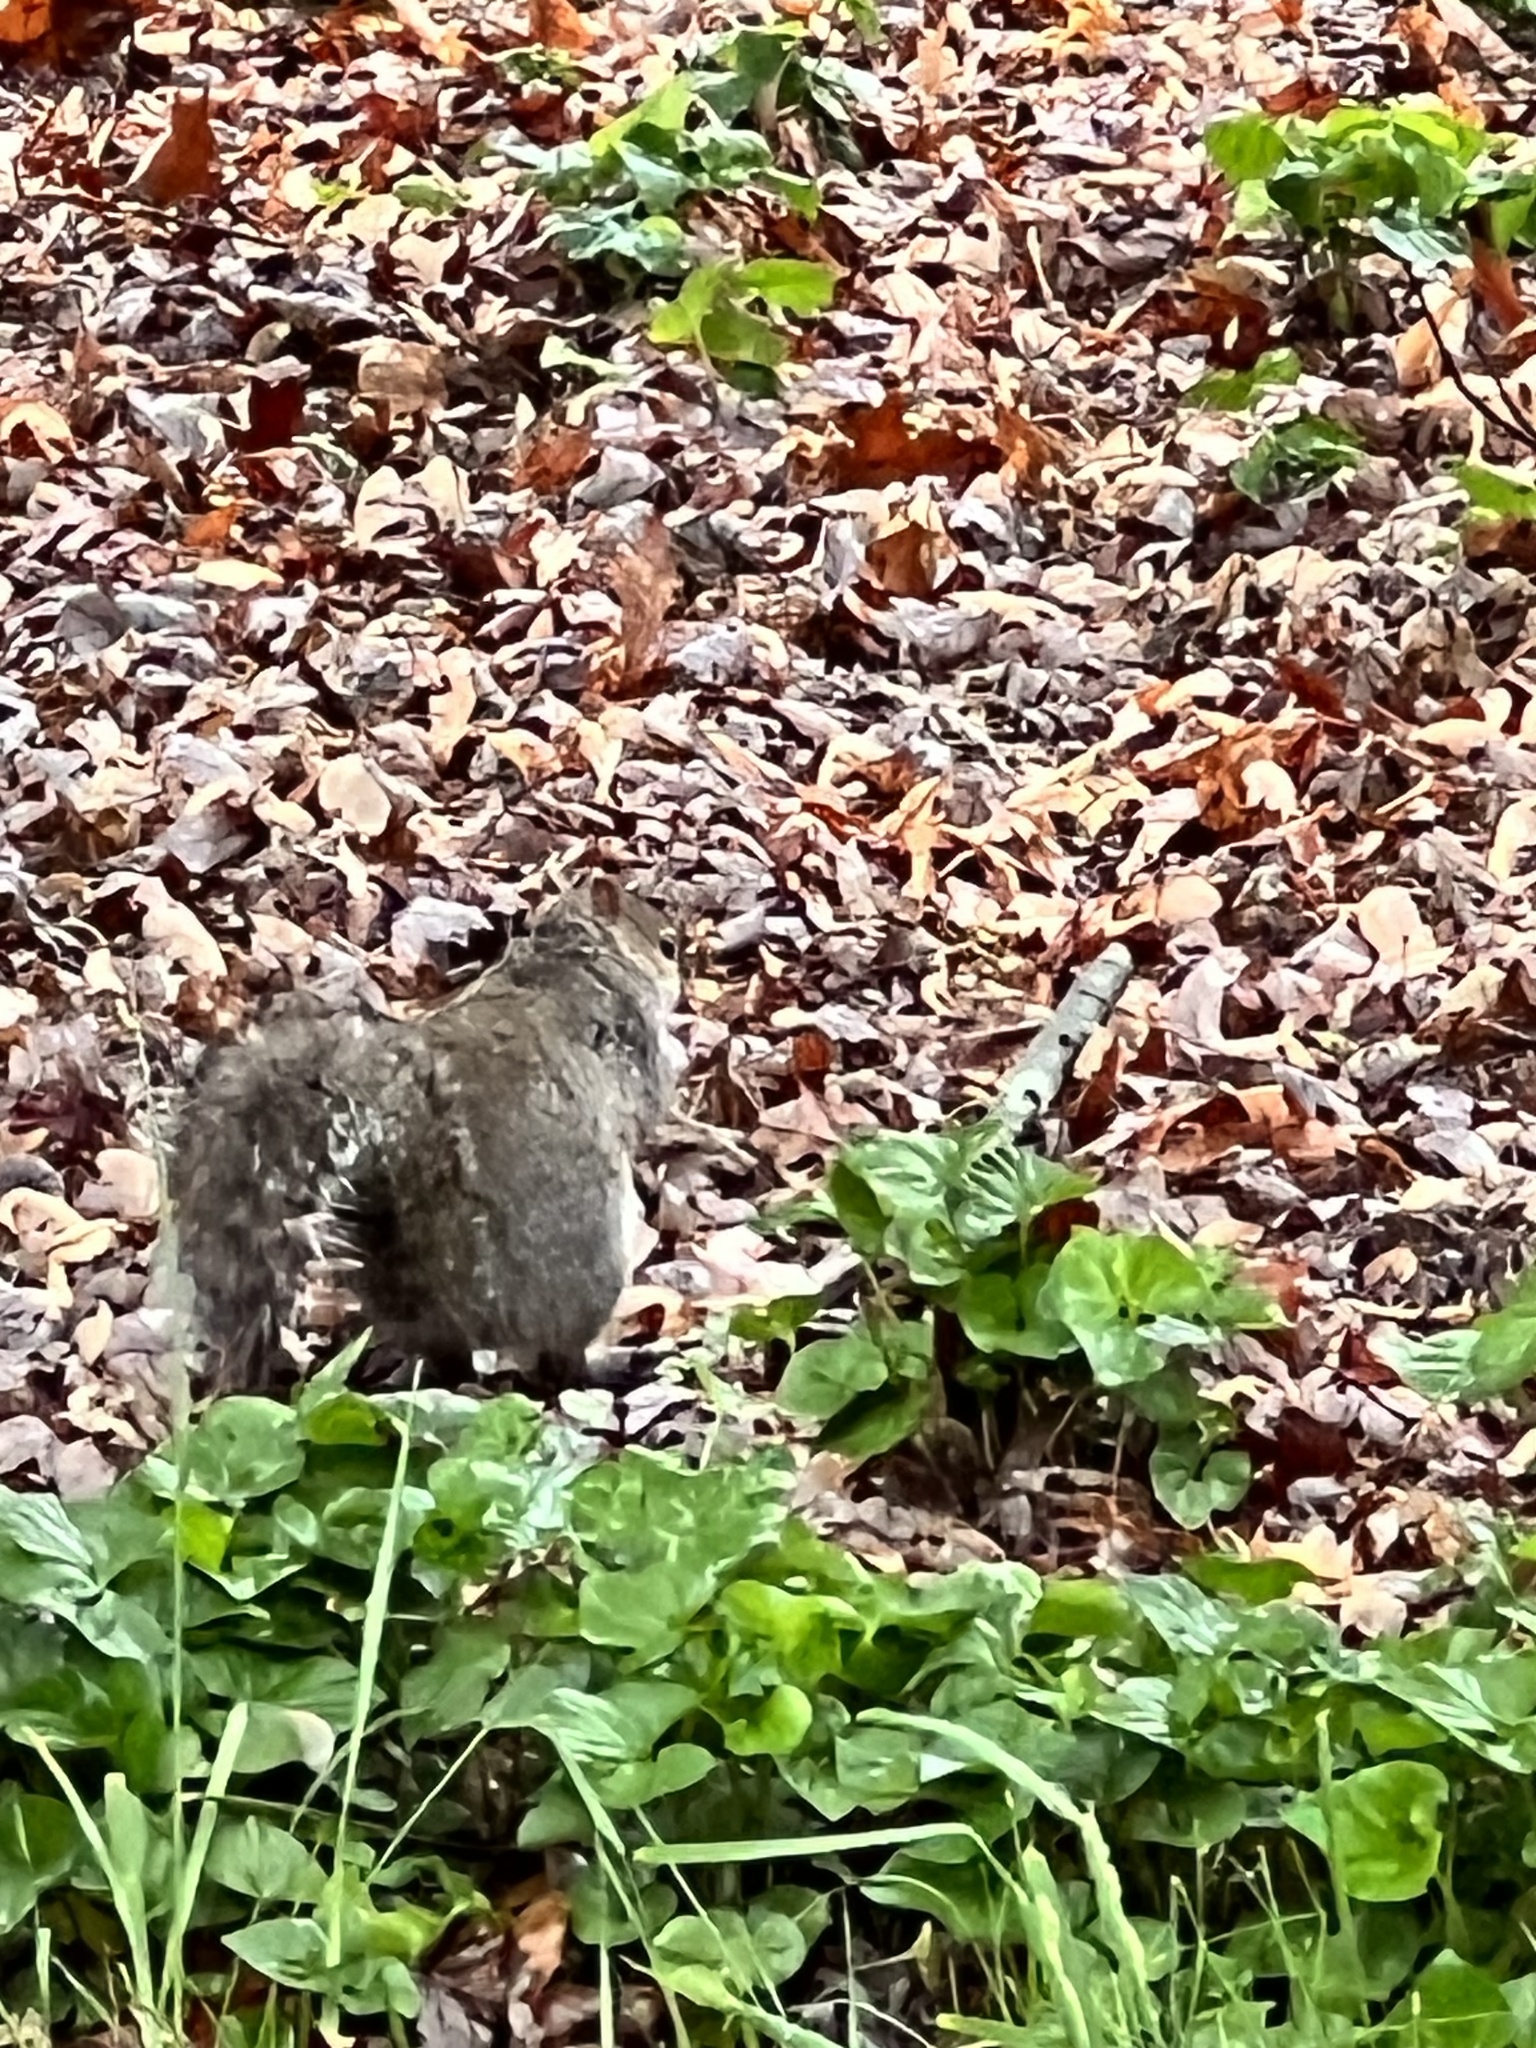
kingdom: Animalia
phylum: Chordata
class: Mammalia
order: Rodentia
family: Sciuridae
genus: Sciurus
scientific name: Sciurus carolinensis
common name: Eastern gray squirrel
